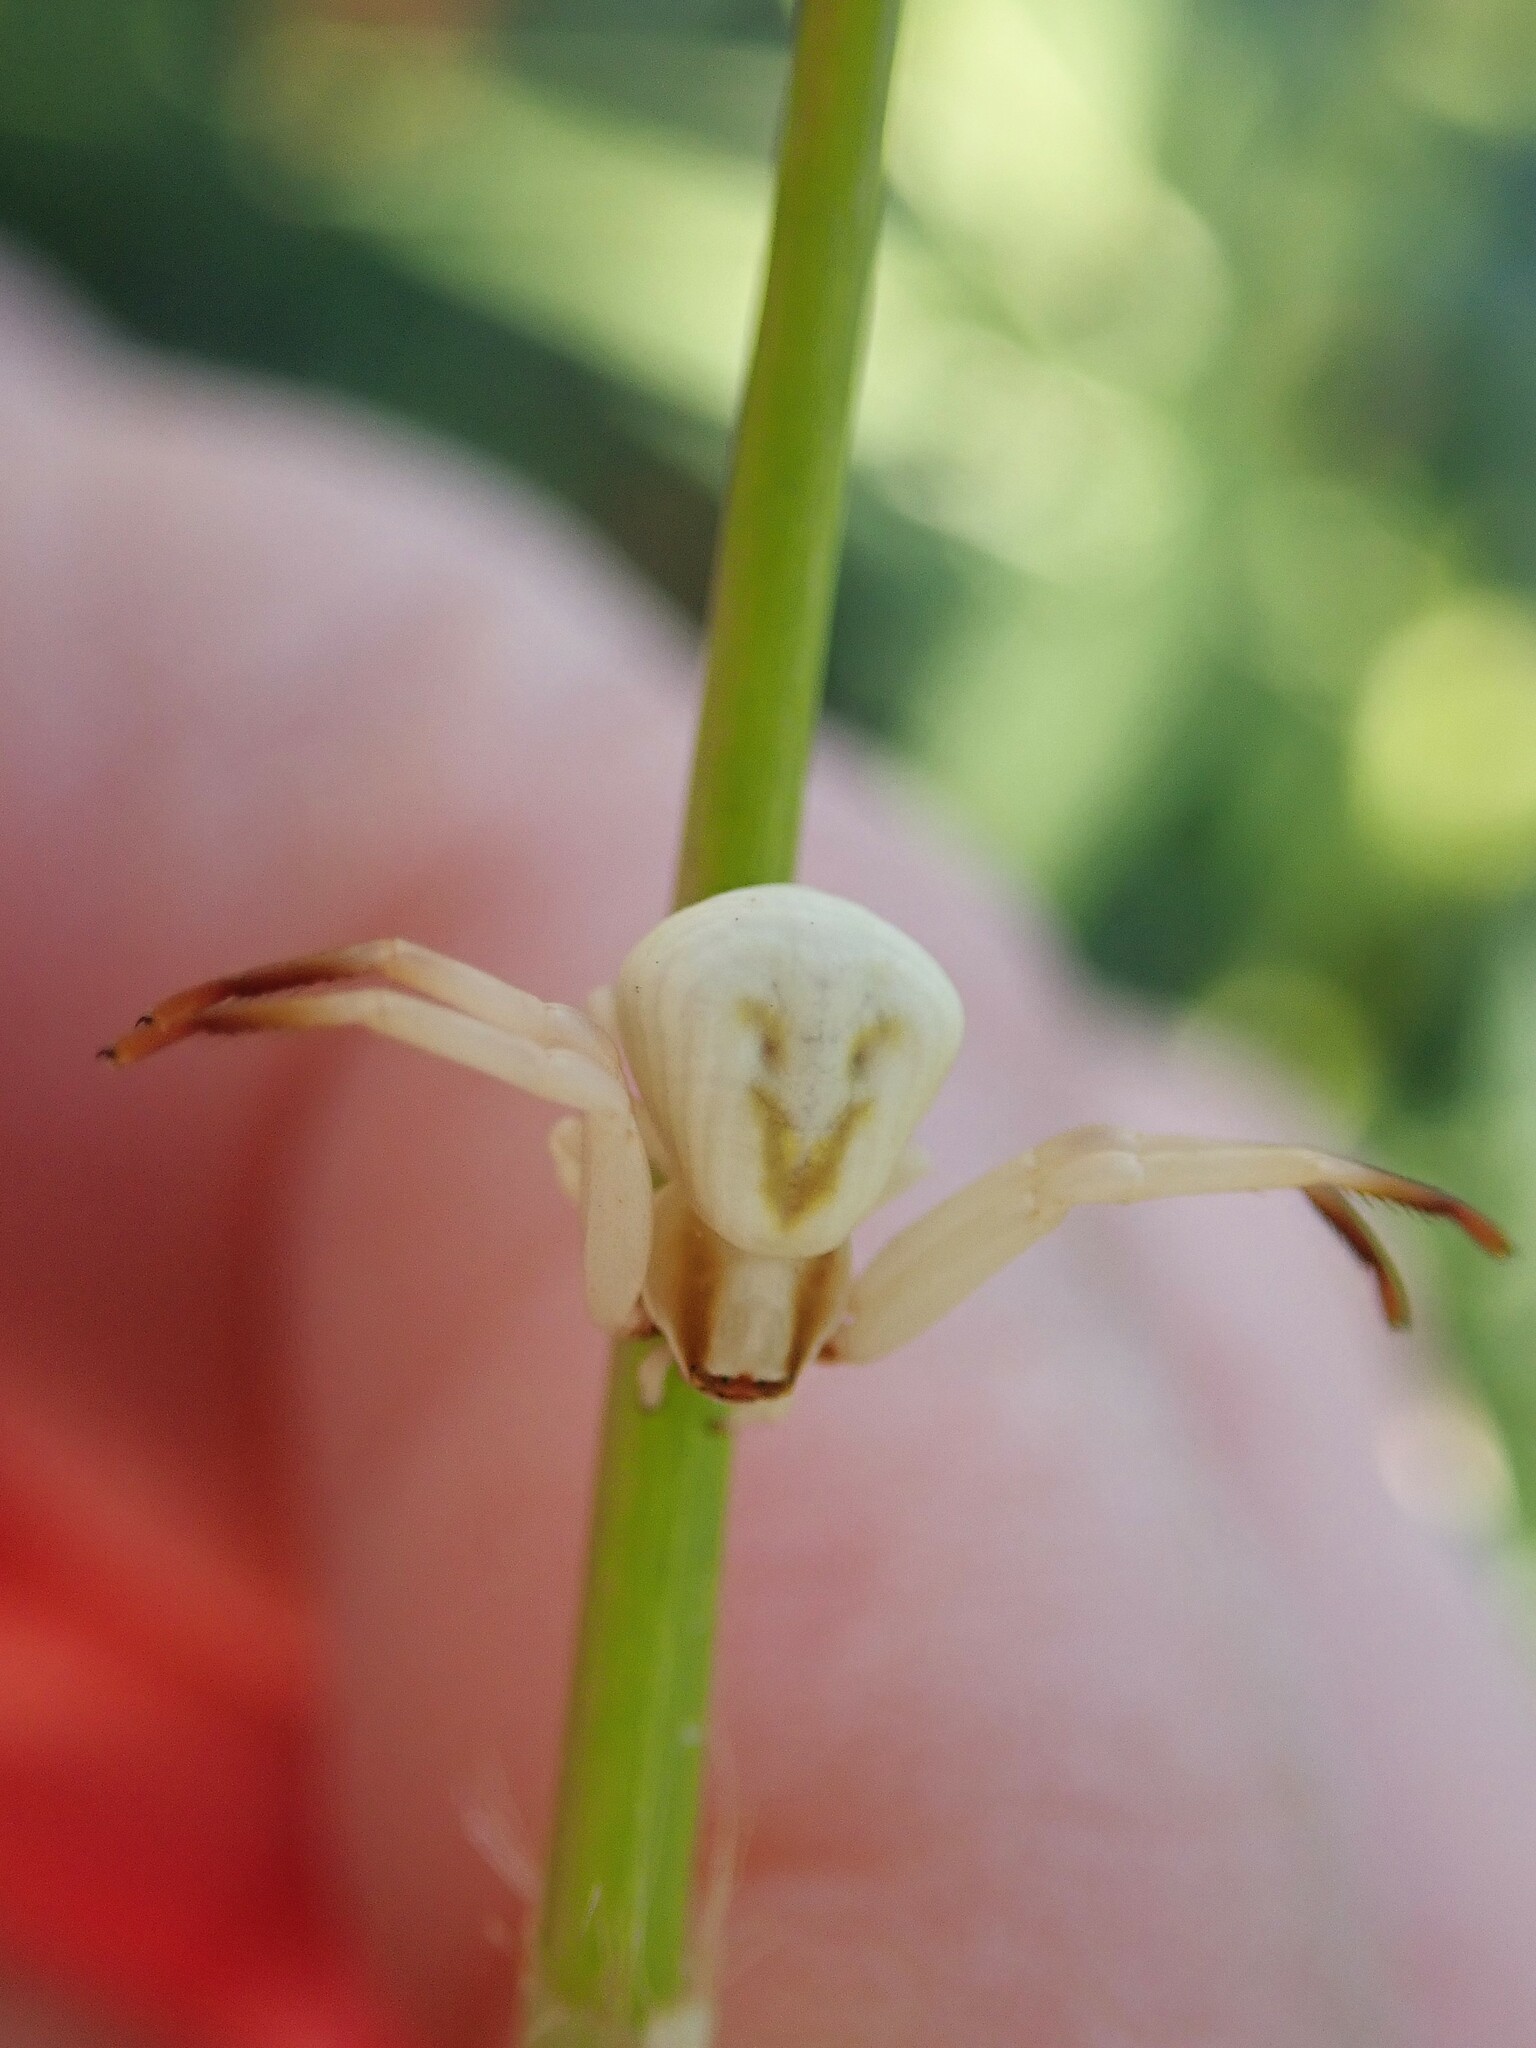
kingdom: Animalia
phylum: Arthropoda
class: Arachnida
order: Araneae
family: Thomisidae
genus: Misumenoides
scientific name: Misumenoides formosipes
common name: White-banded crab spider
